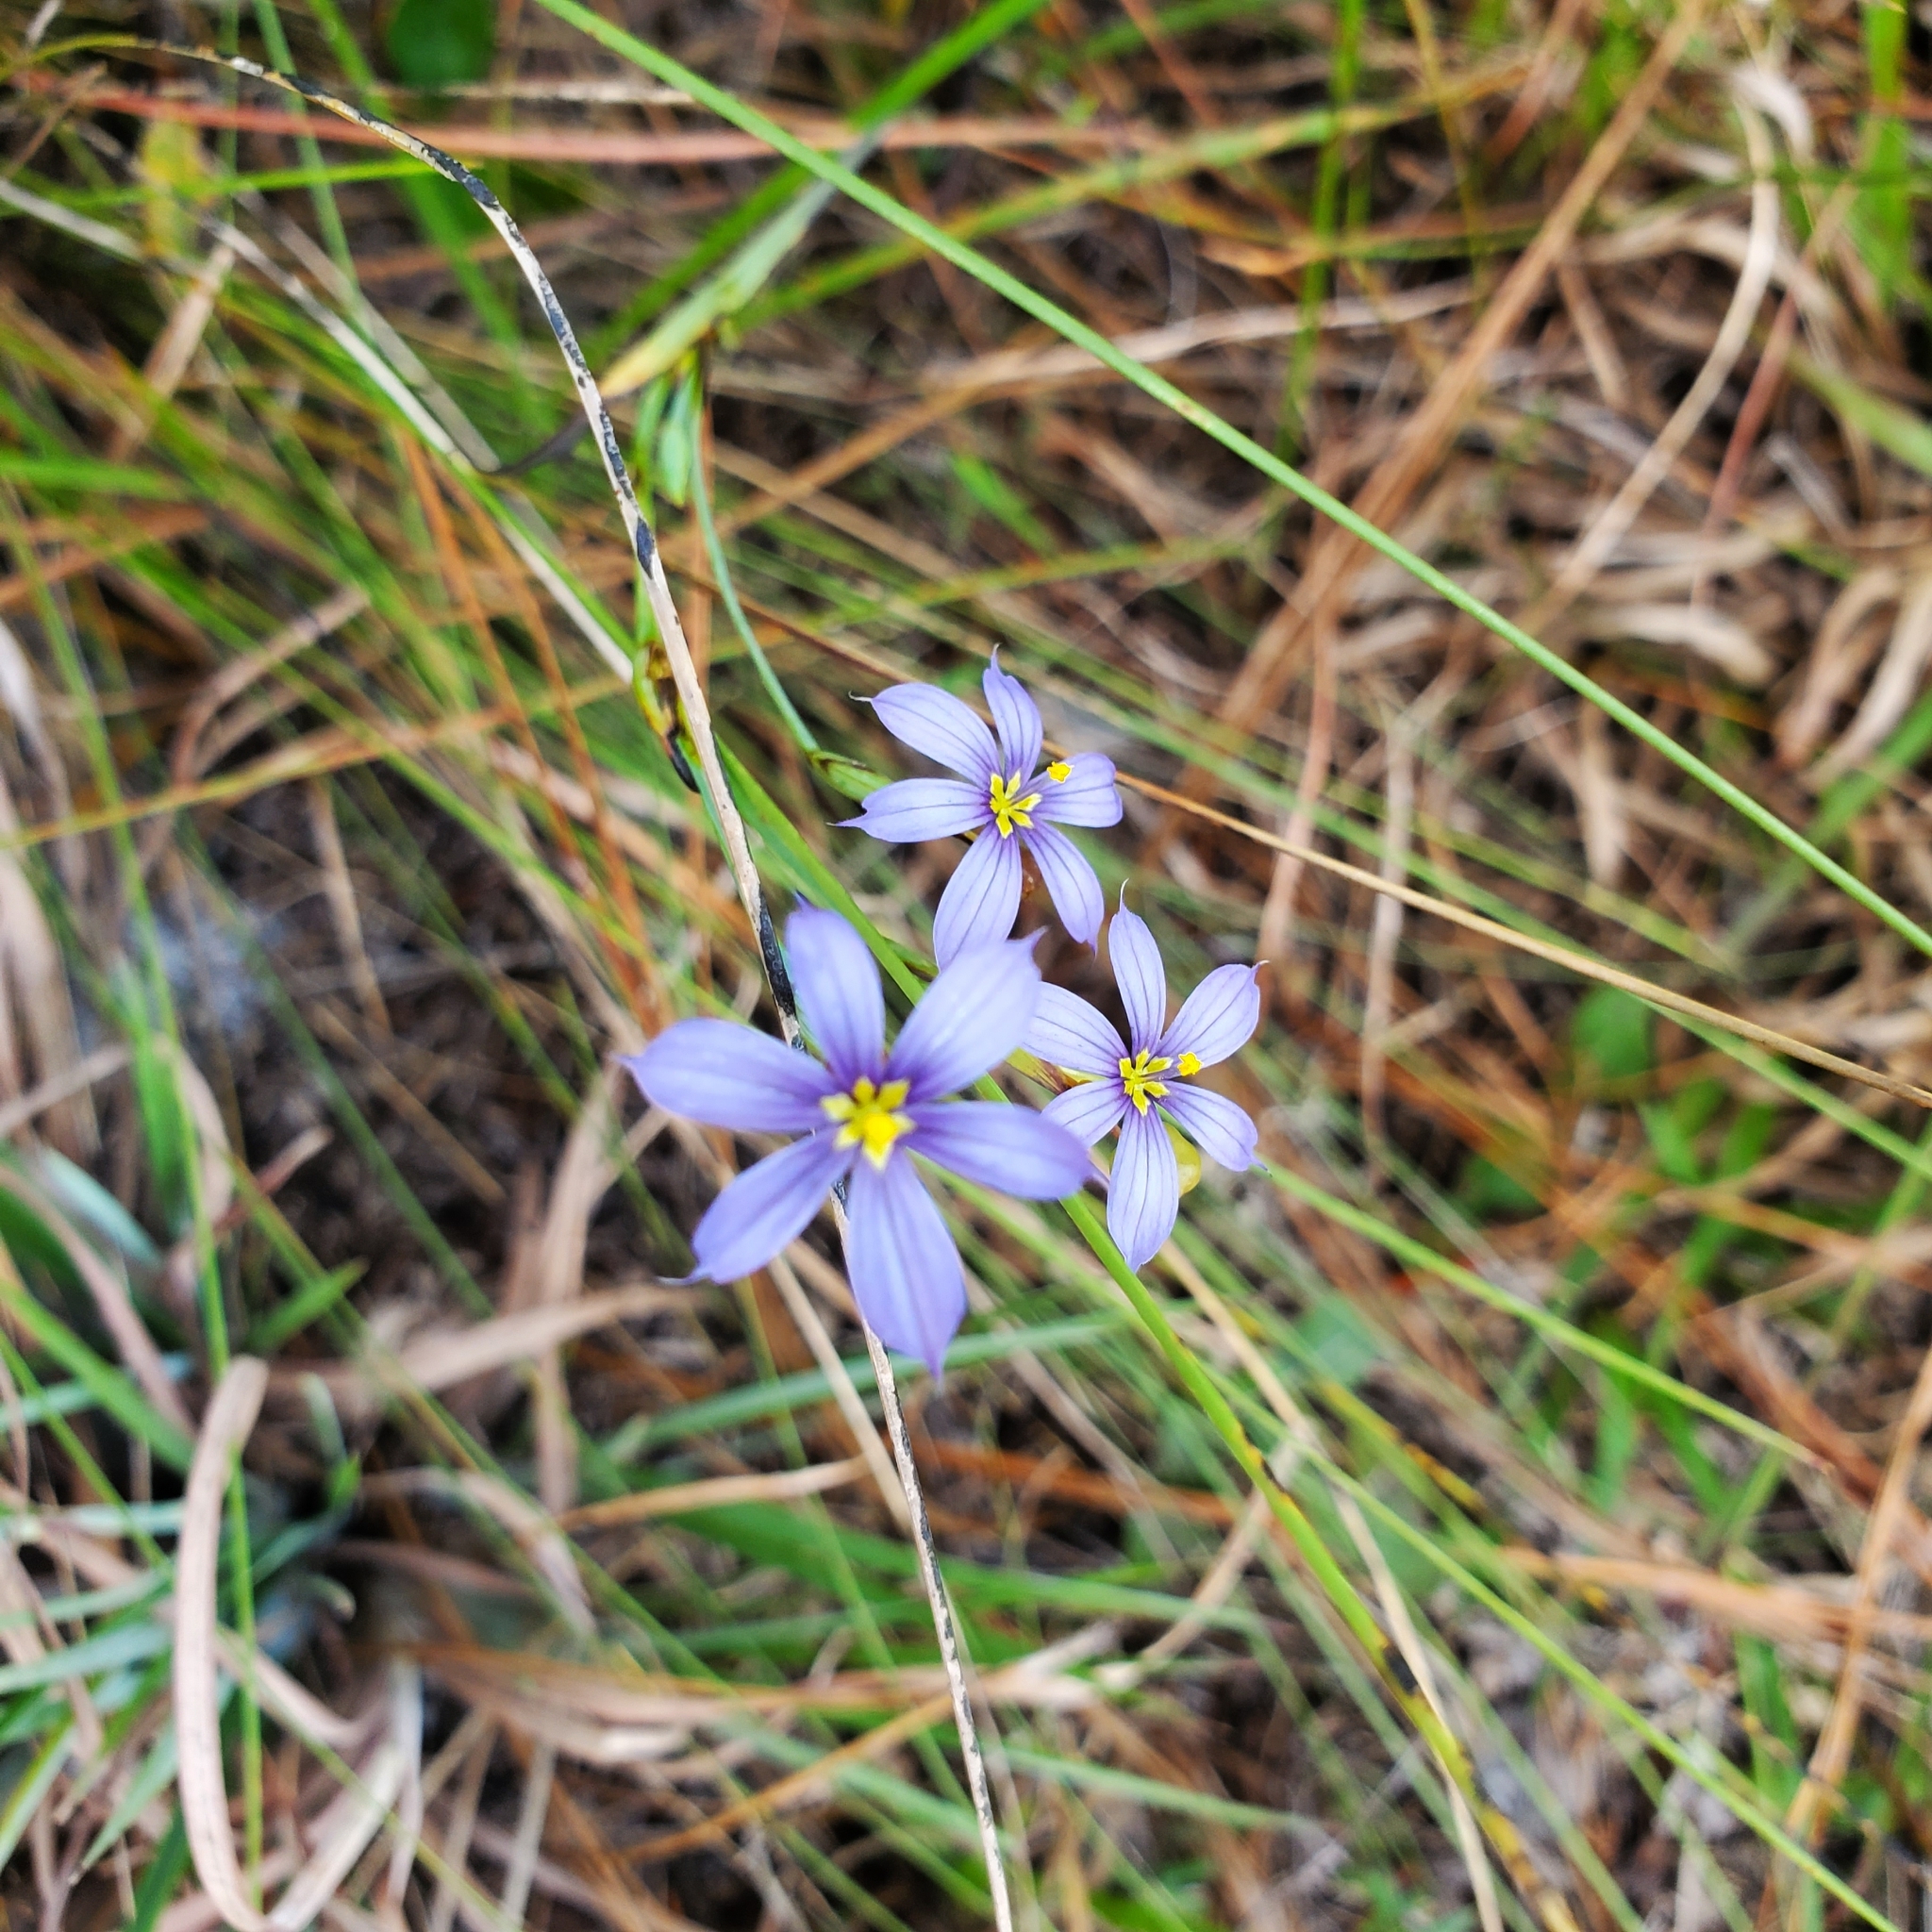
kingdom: Plantae
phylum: Tracheophyta
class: Liliopsida
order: Asparagales
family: Iridaceae
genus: Sisyrinchium
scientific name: Sisyrinchium xerophyllum
